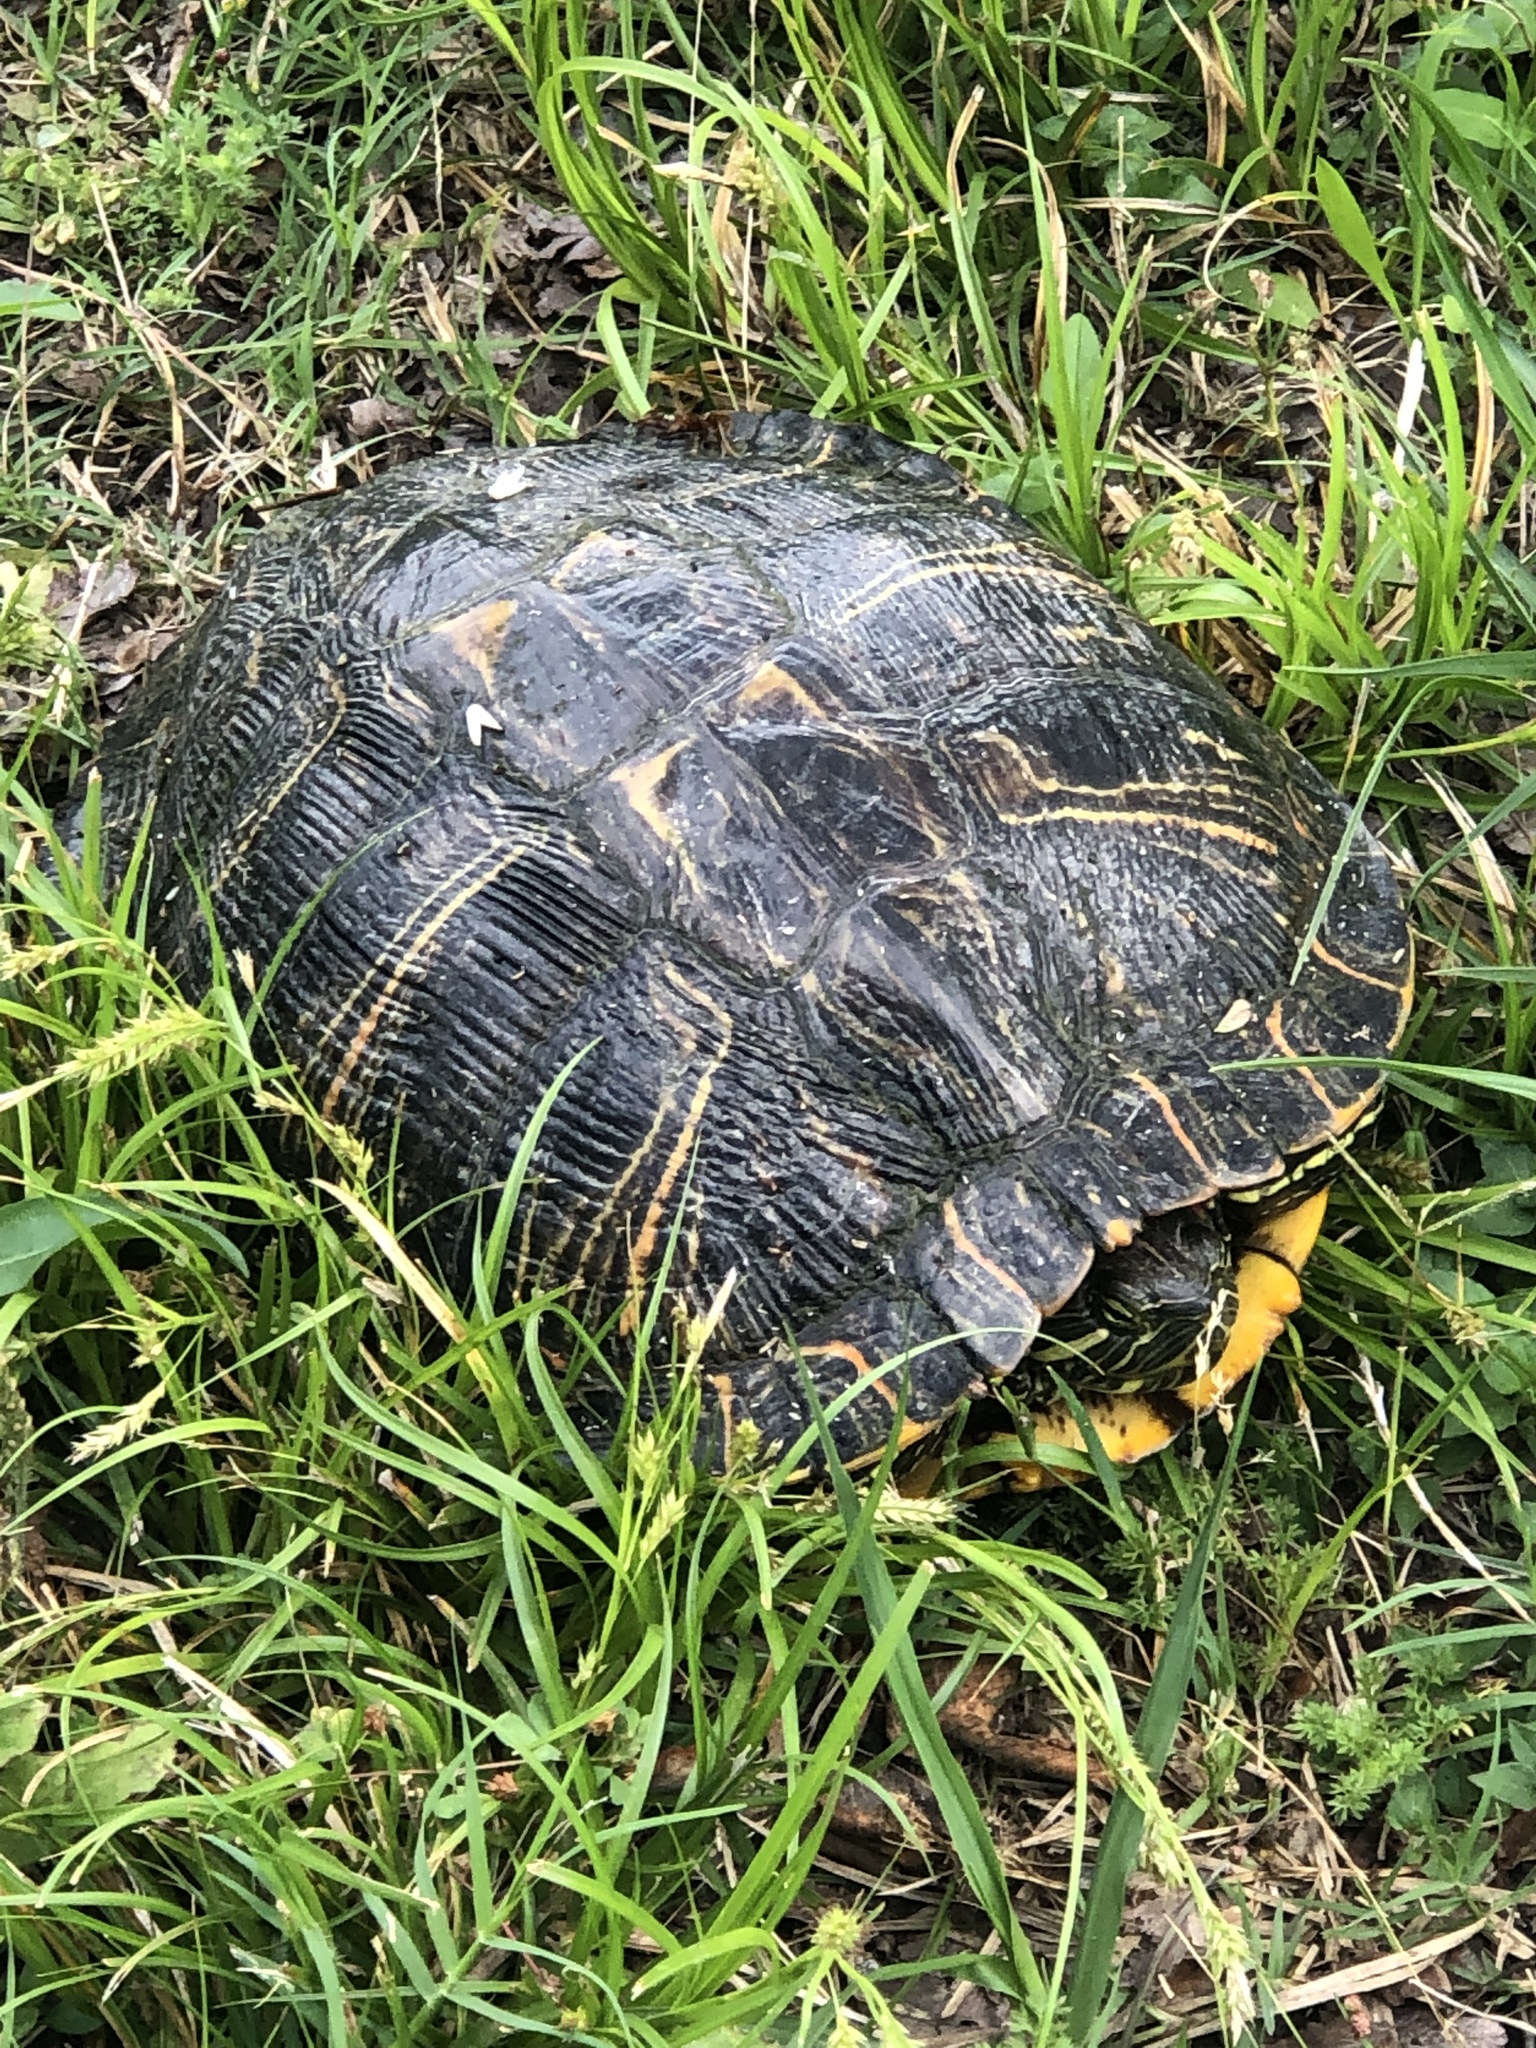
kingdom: Animalia
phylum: Chordata
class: Testudines
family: Emydidae
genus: Trachemys
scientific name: Trachemys scripta
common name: Slider
